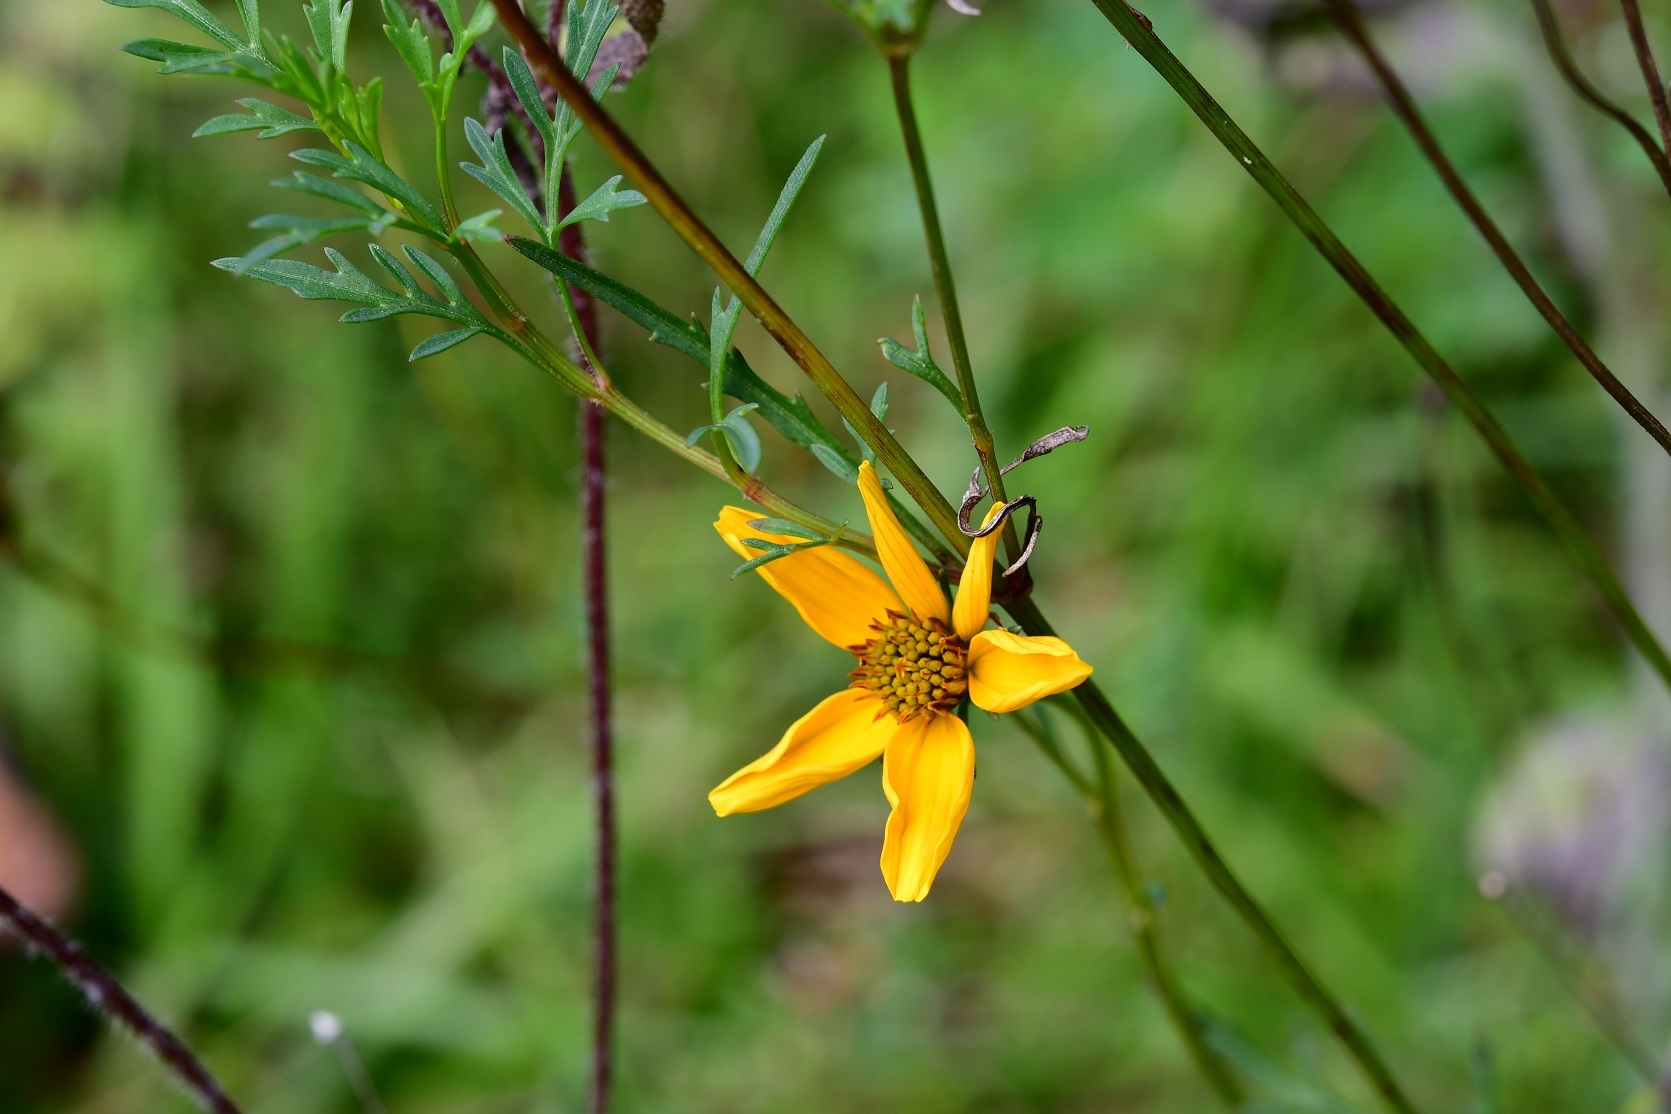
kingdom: Plantae
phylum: Tracheophyta
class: Magnoliopsida
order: Asterales
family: Asteraceae
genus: Bidens
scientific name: Bidens triplinervia
